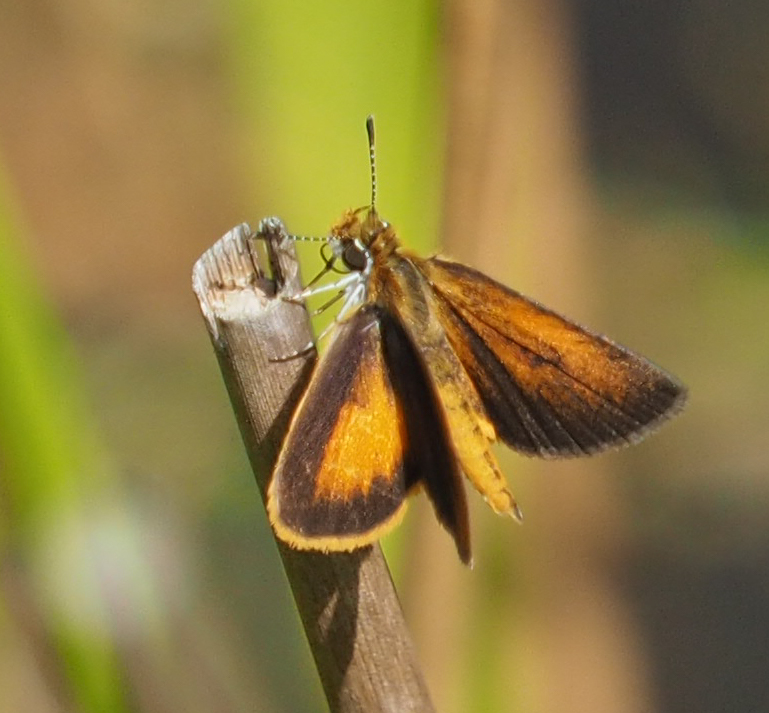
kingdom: Animalia
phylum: Arthropoda
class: Insecta
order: Lepidoptera
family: Hesperiidae
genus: Ancyloxypha
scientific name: Ancyloxypha numitor
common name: Least skipper
